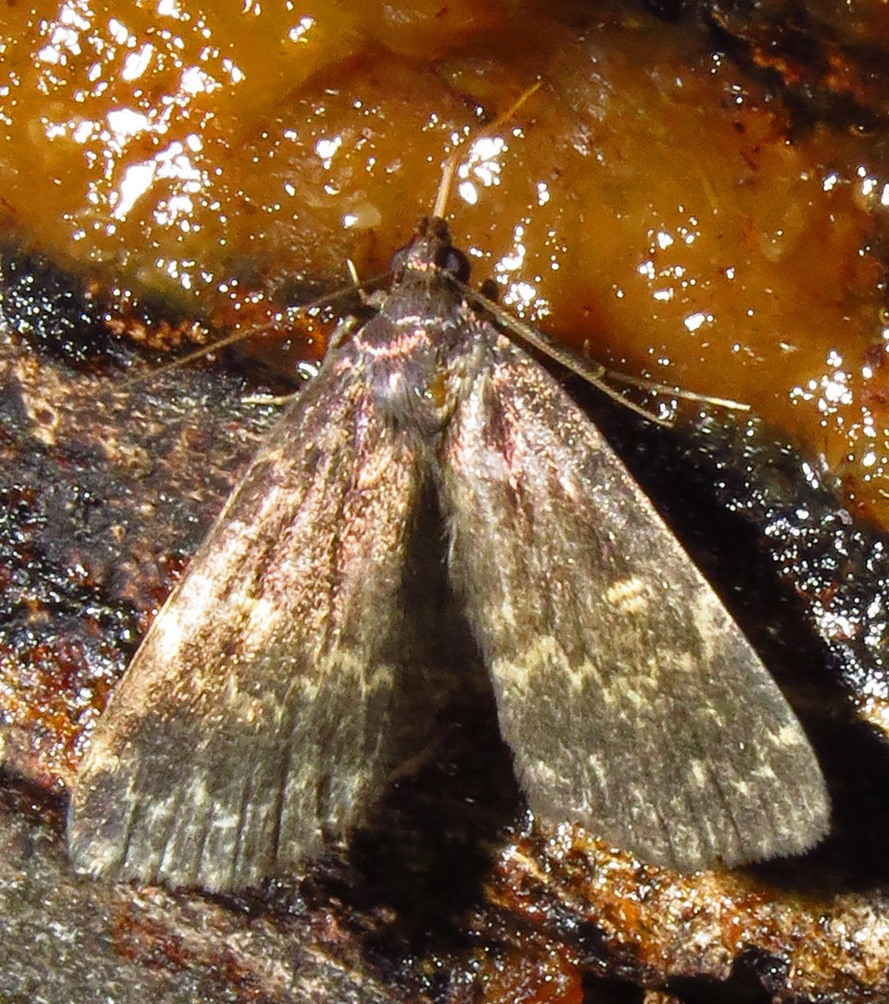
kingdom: Animalia
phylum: Arthropoda
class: Insecta
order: Lepidoptera
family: Erebidae
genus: Idia
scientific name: Idia lubricalis
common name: Twin-striped tabby
